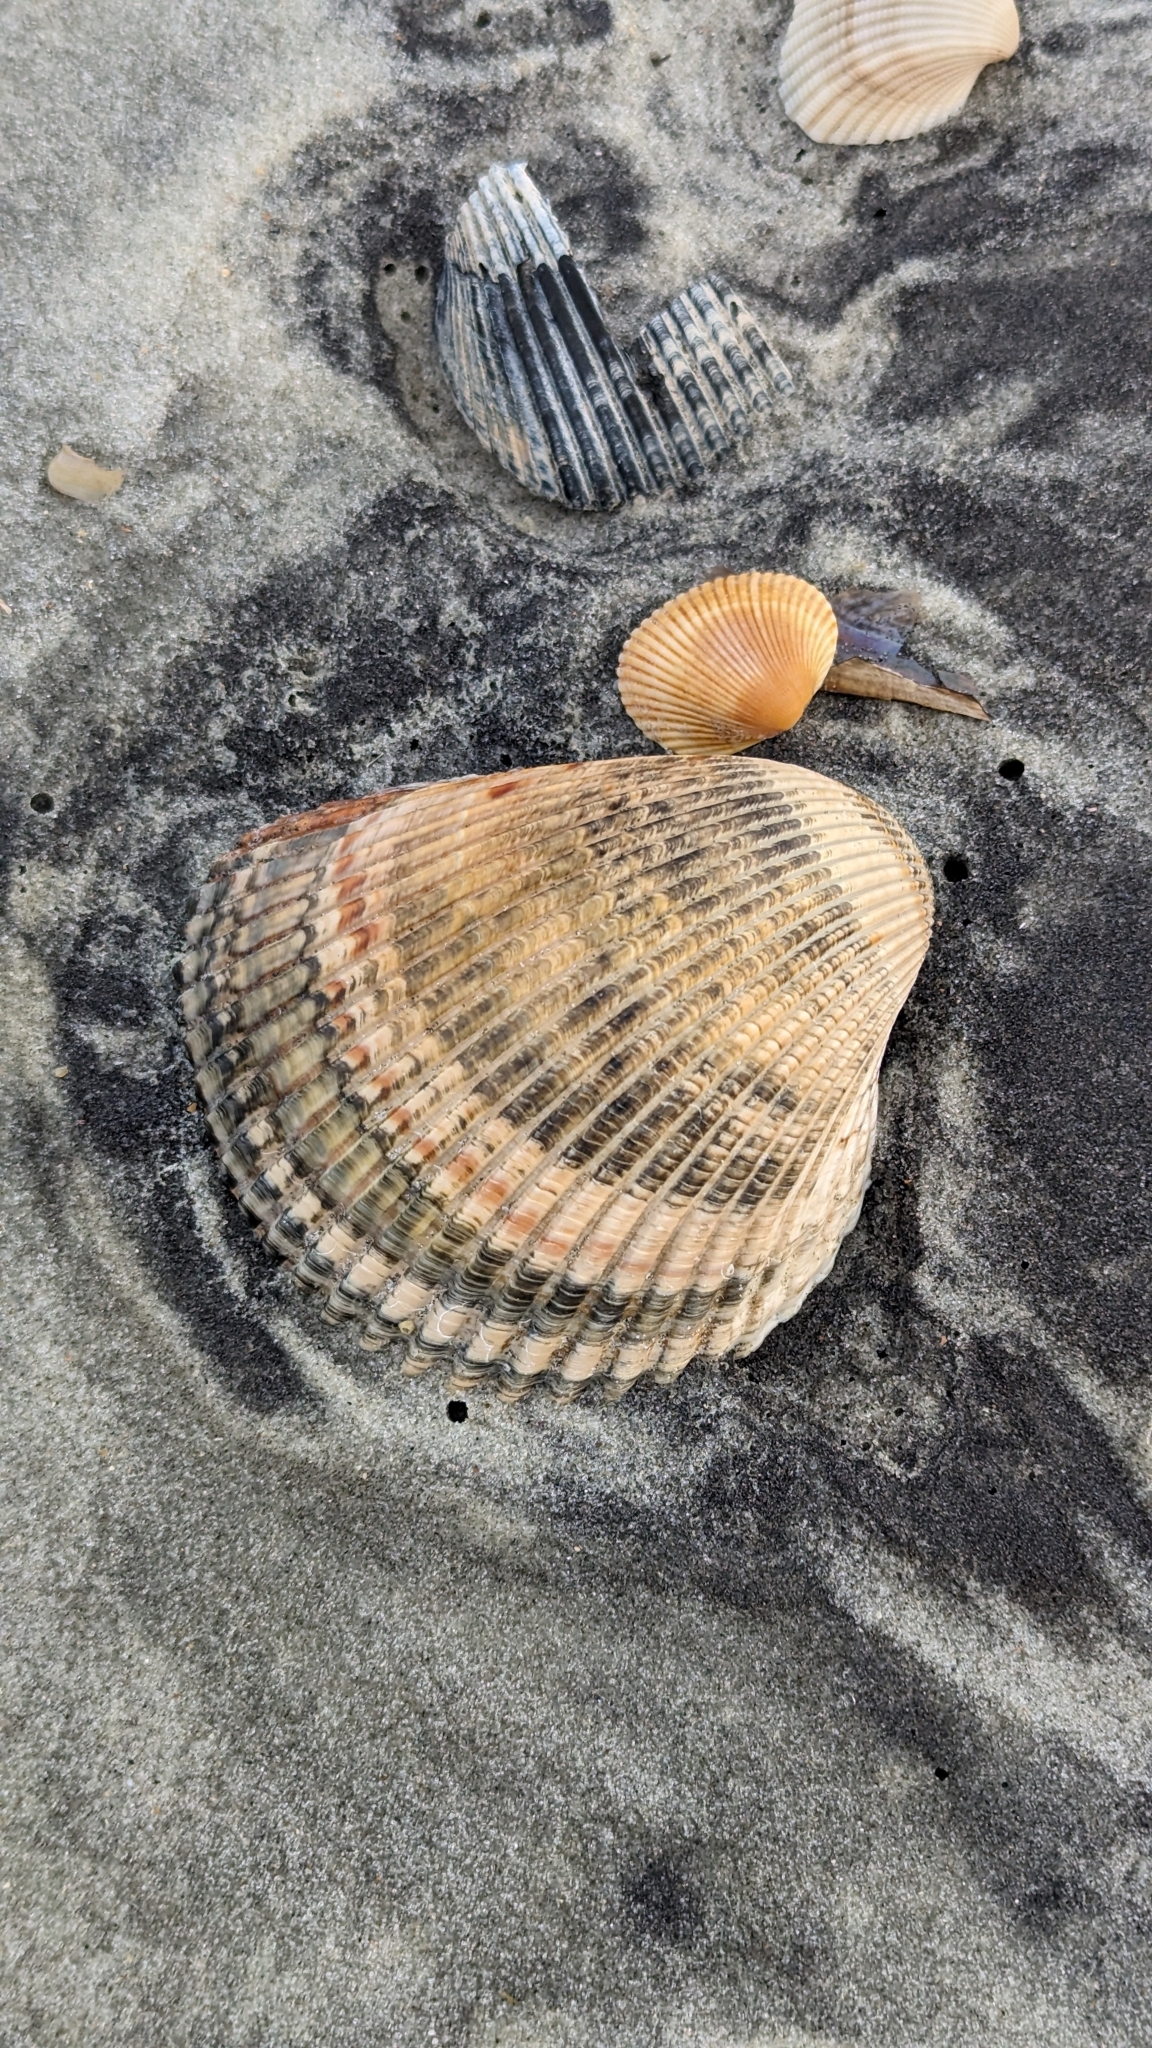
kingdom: Animalia
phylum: Mollusca
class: Bivalvia
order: Cardiida
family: Cardiidae
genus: Dinocardium
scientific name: Dinocardium robustum
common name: Atlantic giant cockle
